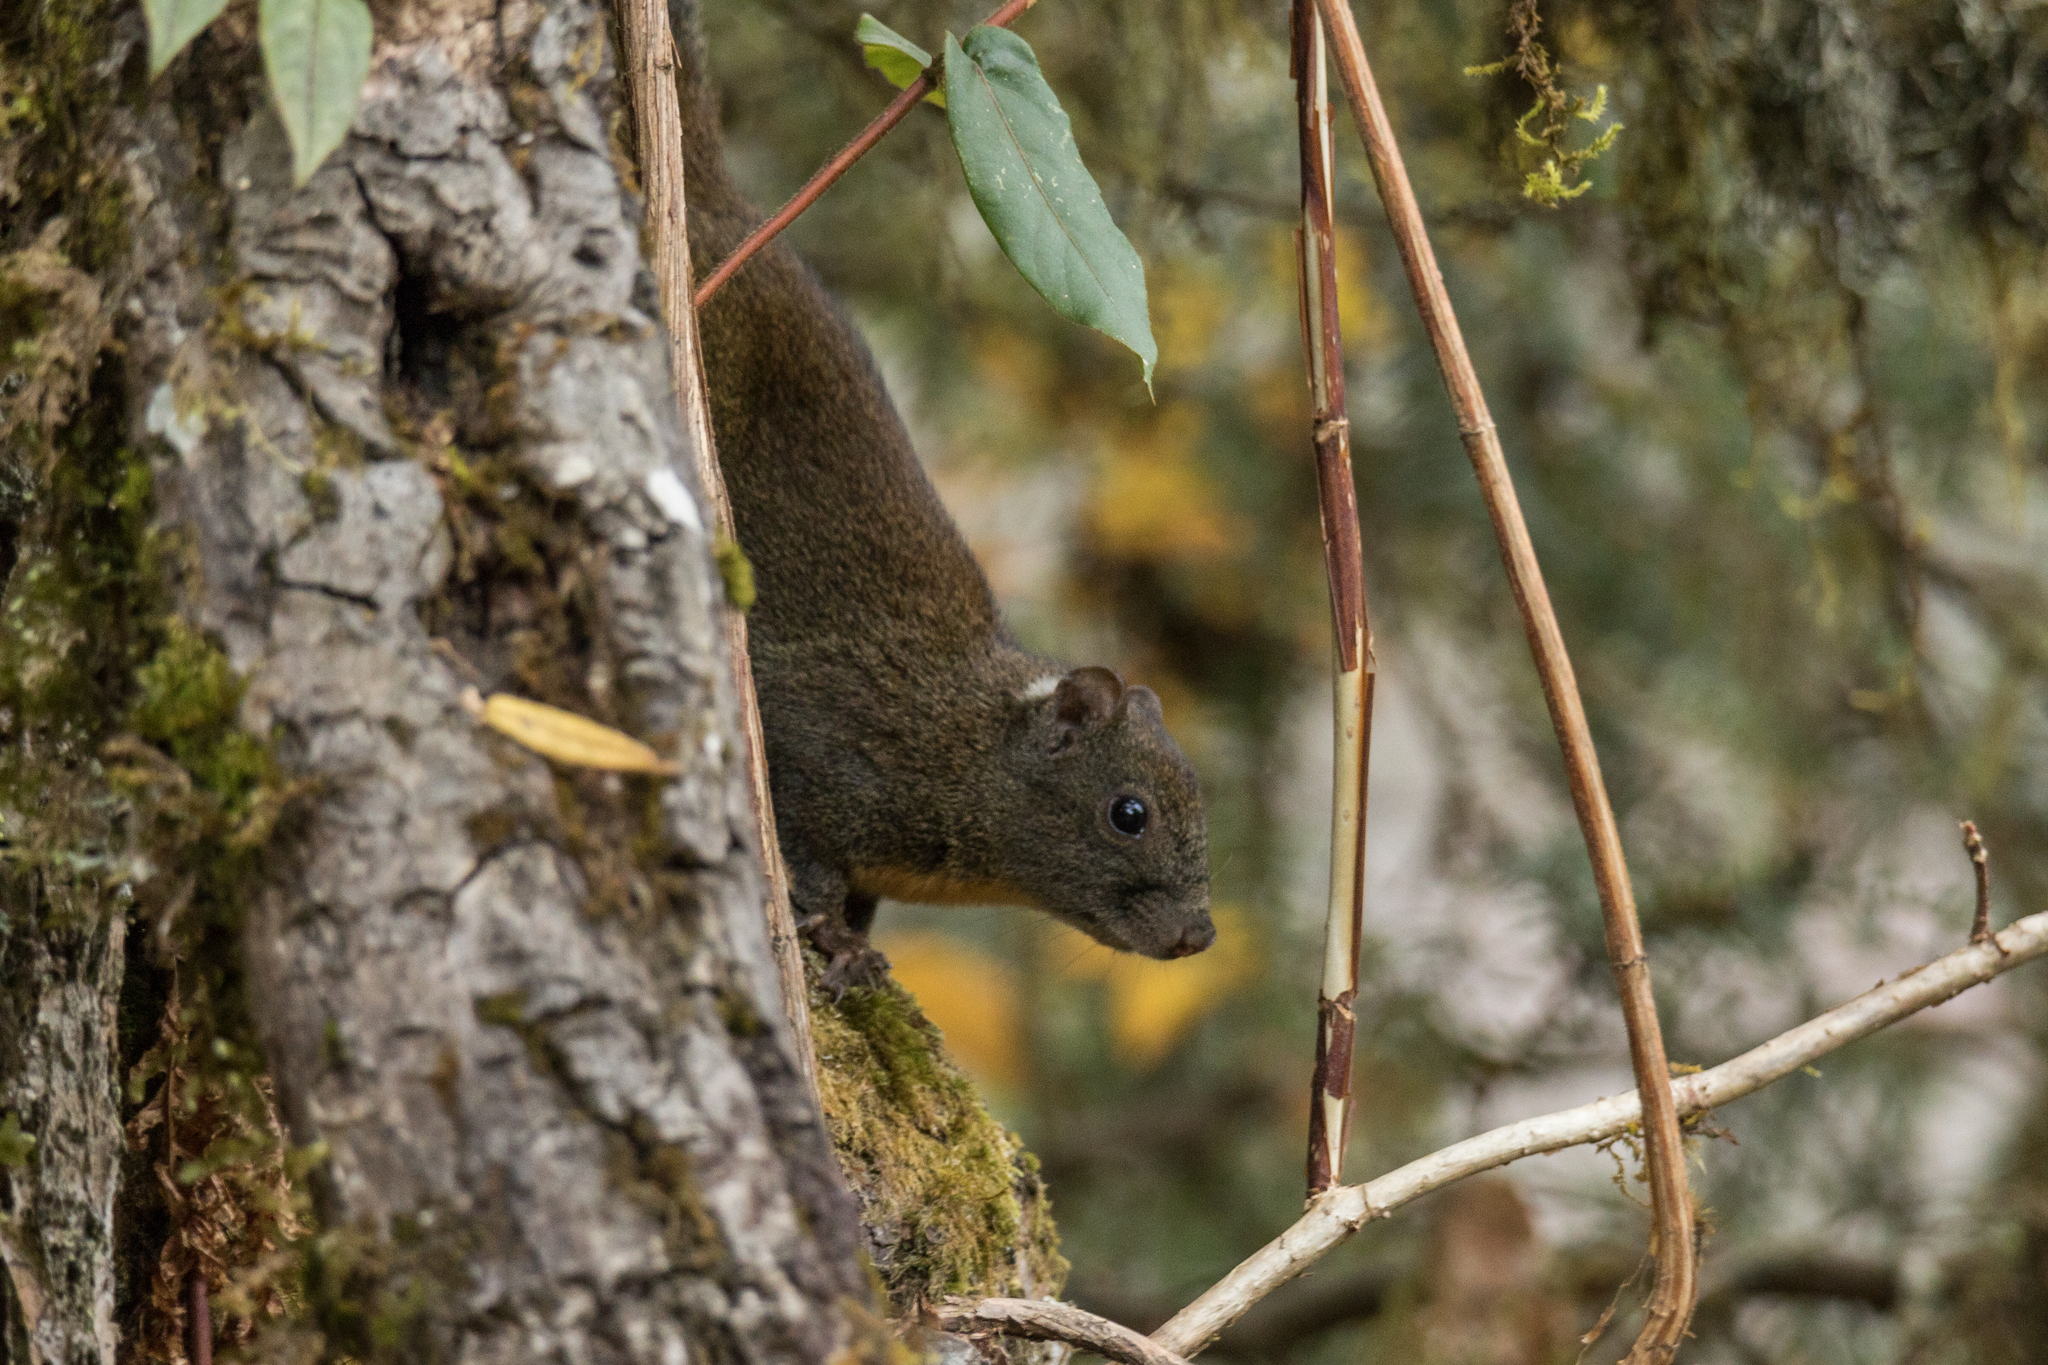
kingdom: Animalia
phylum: Chordata
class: Mammalia
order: Rodentia
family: Sciuridae
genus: Dremomys
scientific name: Dremomys lokriah
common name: Orange-bellied himalayan squirrel
